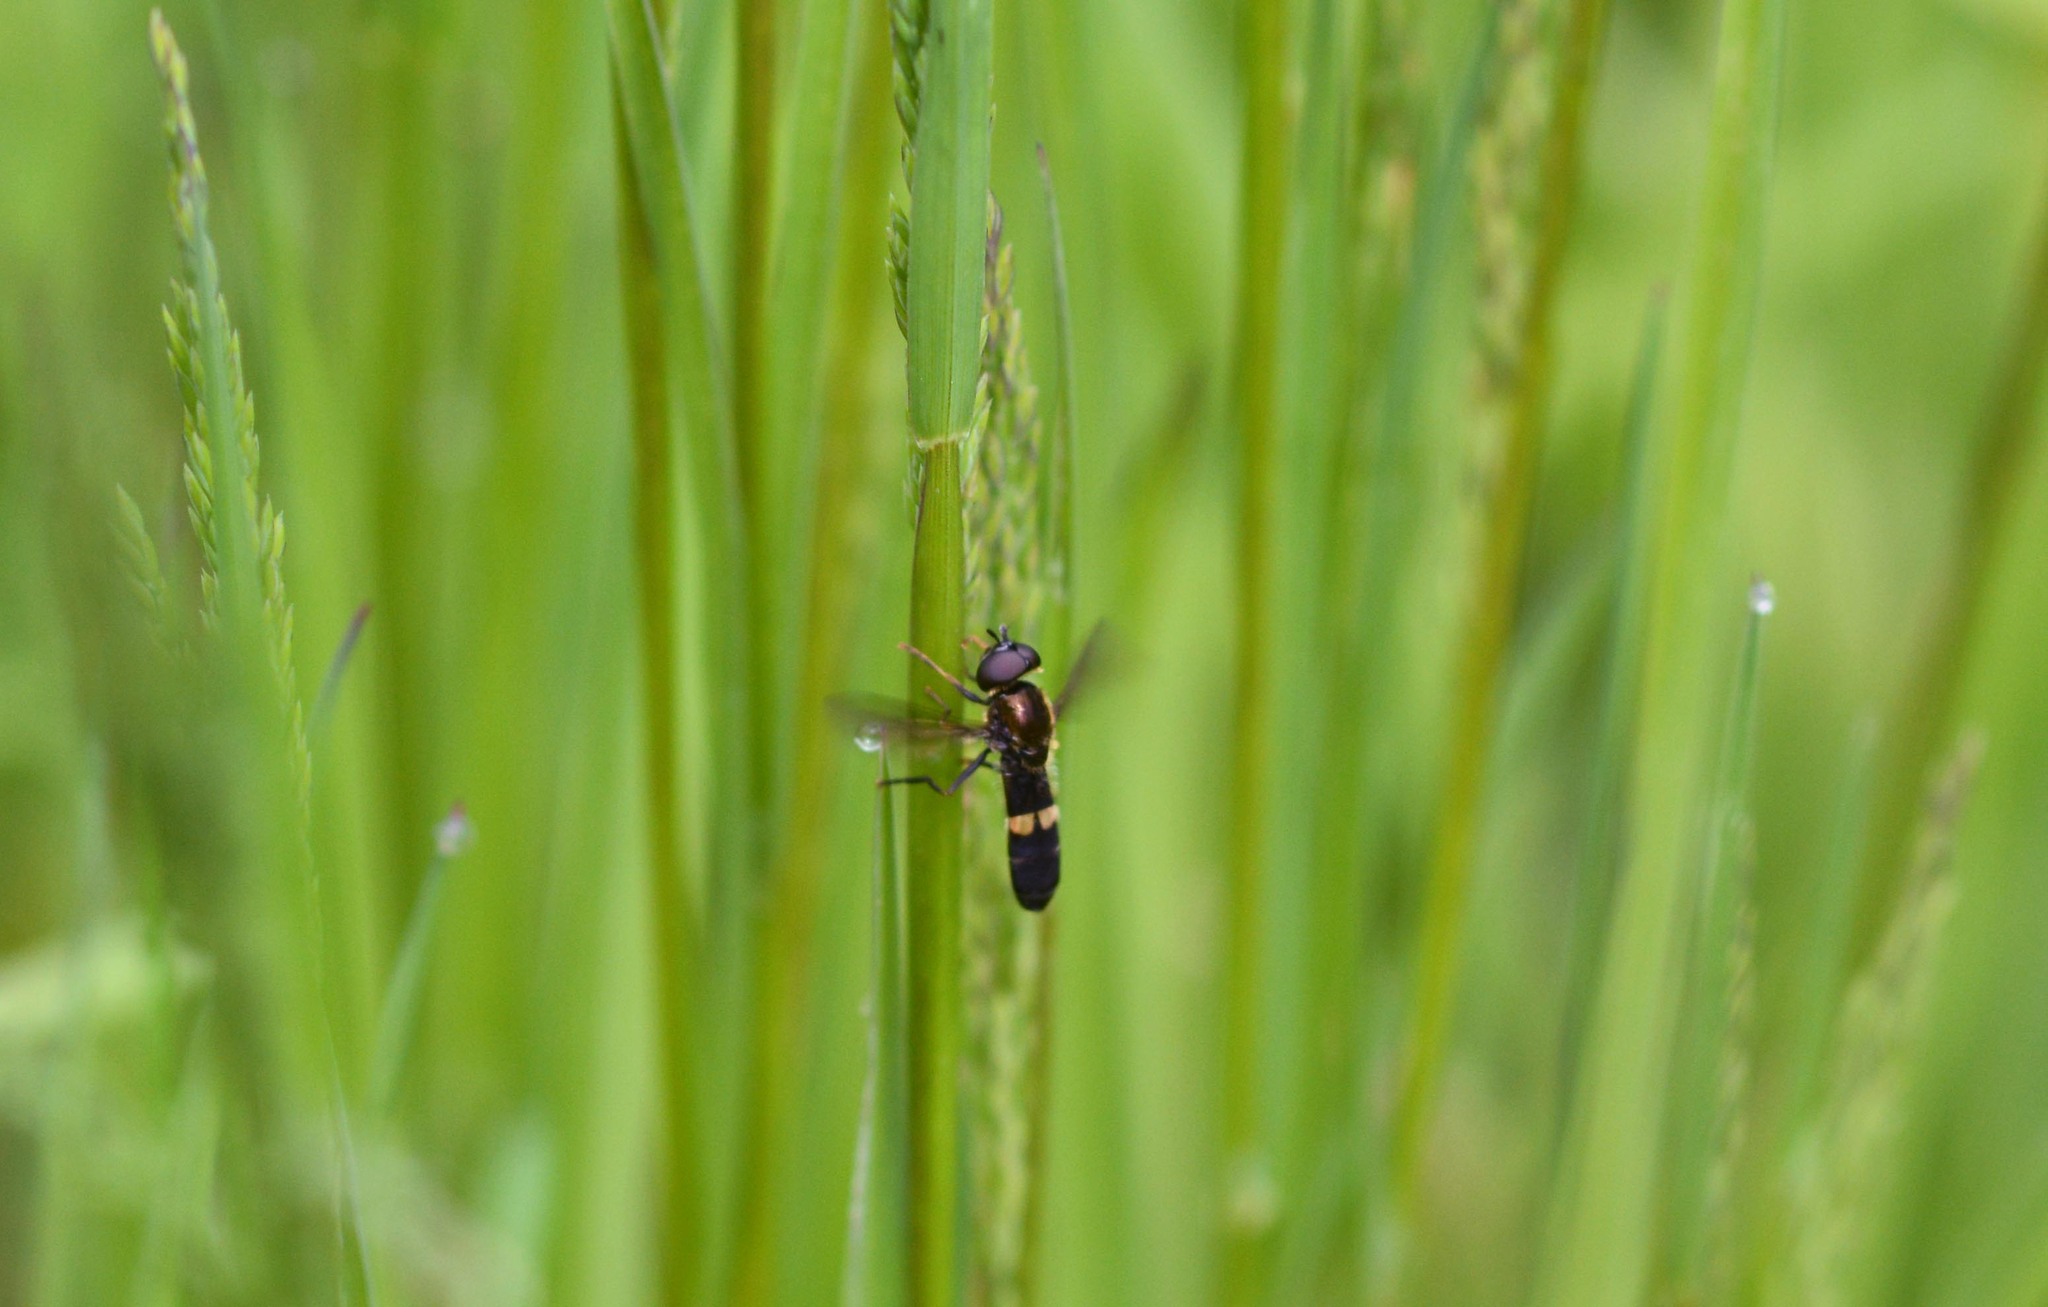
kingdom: Animalia
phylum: Arthropoda
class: Insecta
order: Diptera
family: Syrphidae
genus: Pyrophaena
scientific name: Pyrophaena rosarum
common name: Fourspot sedgesitter
